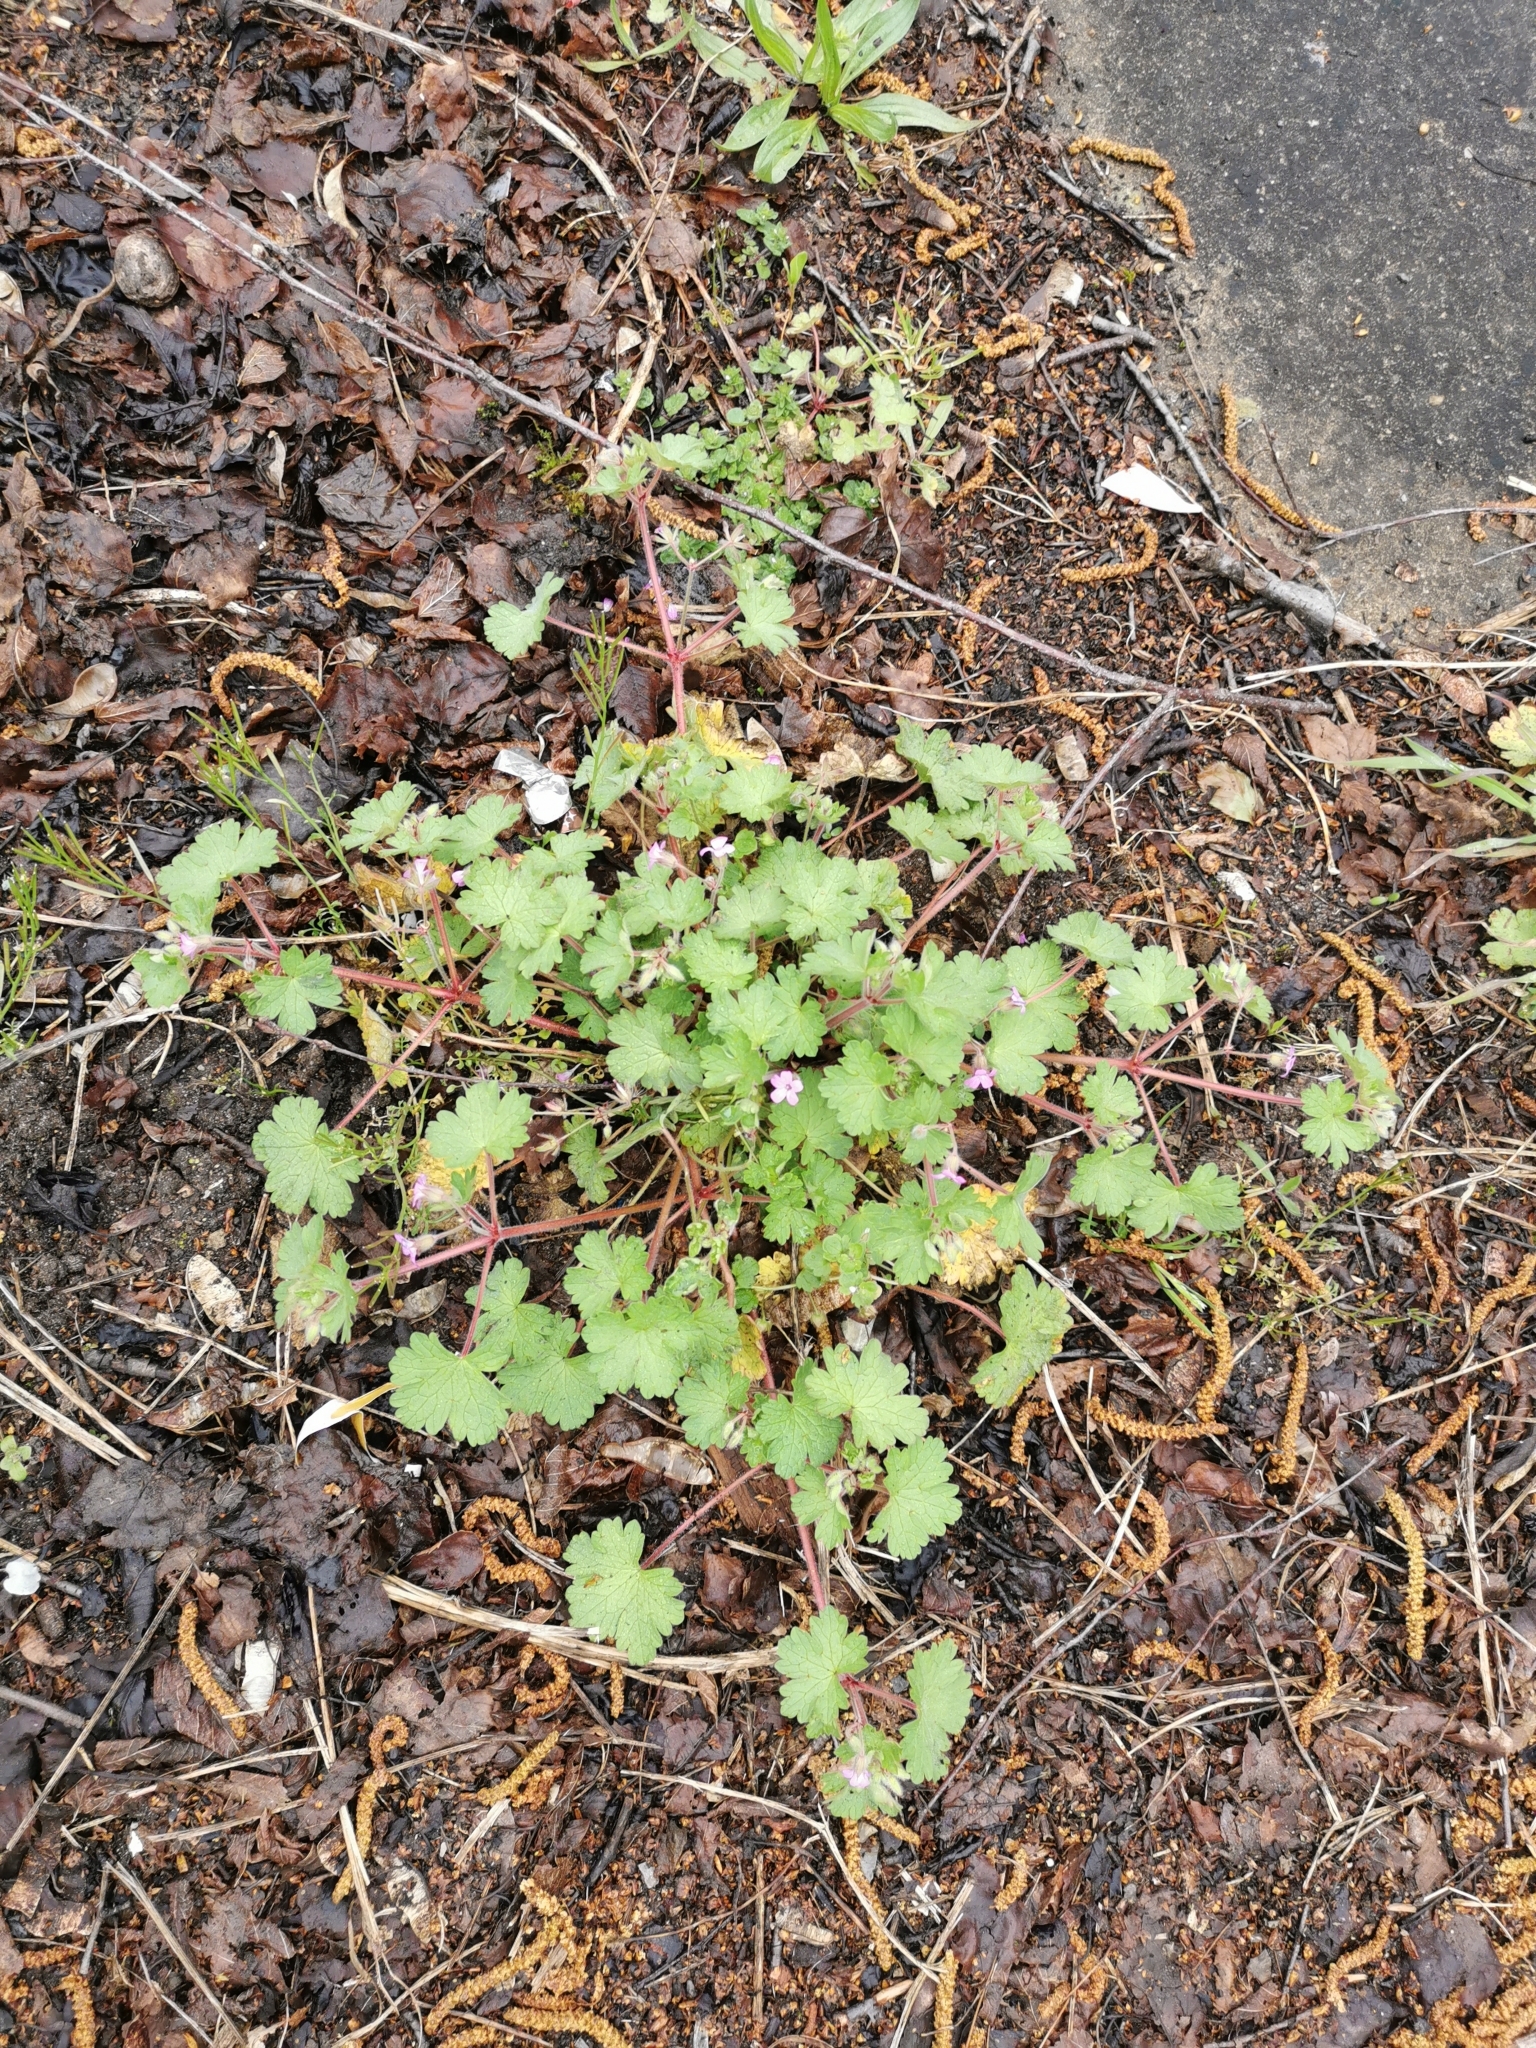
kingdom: Plantae
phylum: Tracheophyta
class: Magnoliopsida
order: Geraniales
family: Geraniaceae
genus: Geranium
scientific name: Geranium rotundifolium
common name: Round-leaved crane's-bill
